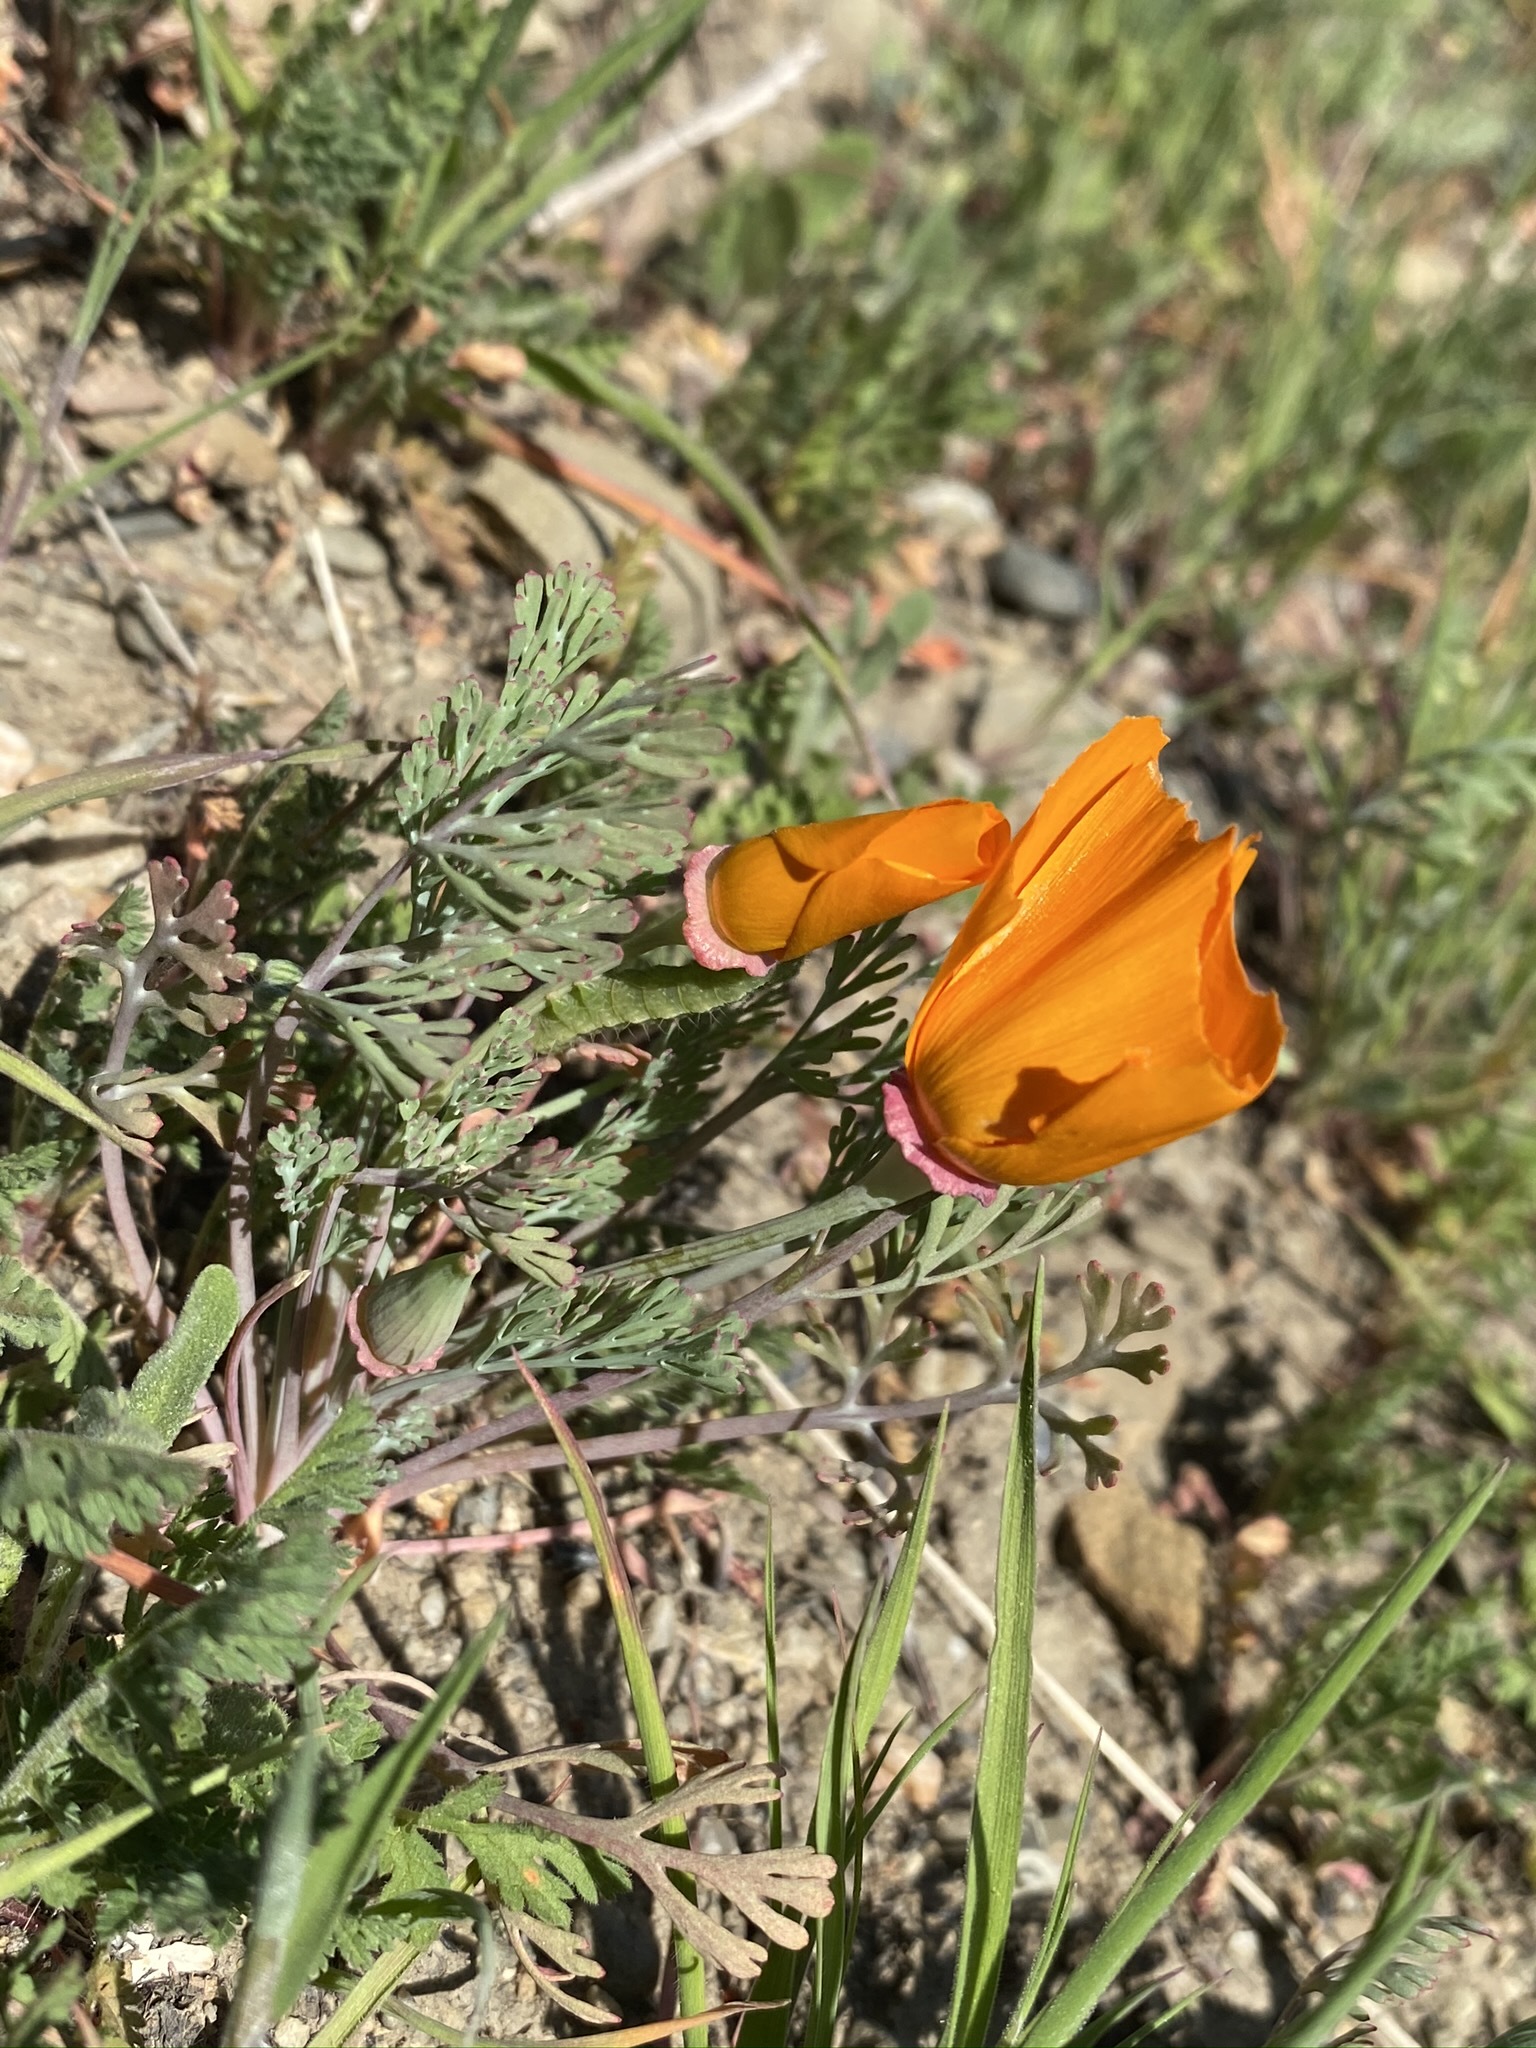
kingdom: Plantae
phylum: Tracheophyta
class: Magnoliopsida
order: Ranunculales
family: Papaveraceae
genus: Eschscholzia
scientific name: Eschscholzia californica
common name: California poppy
